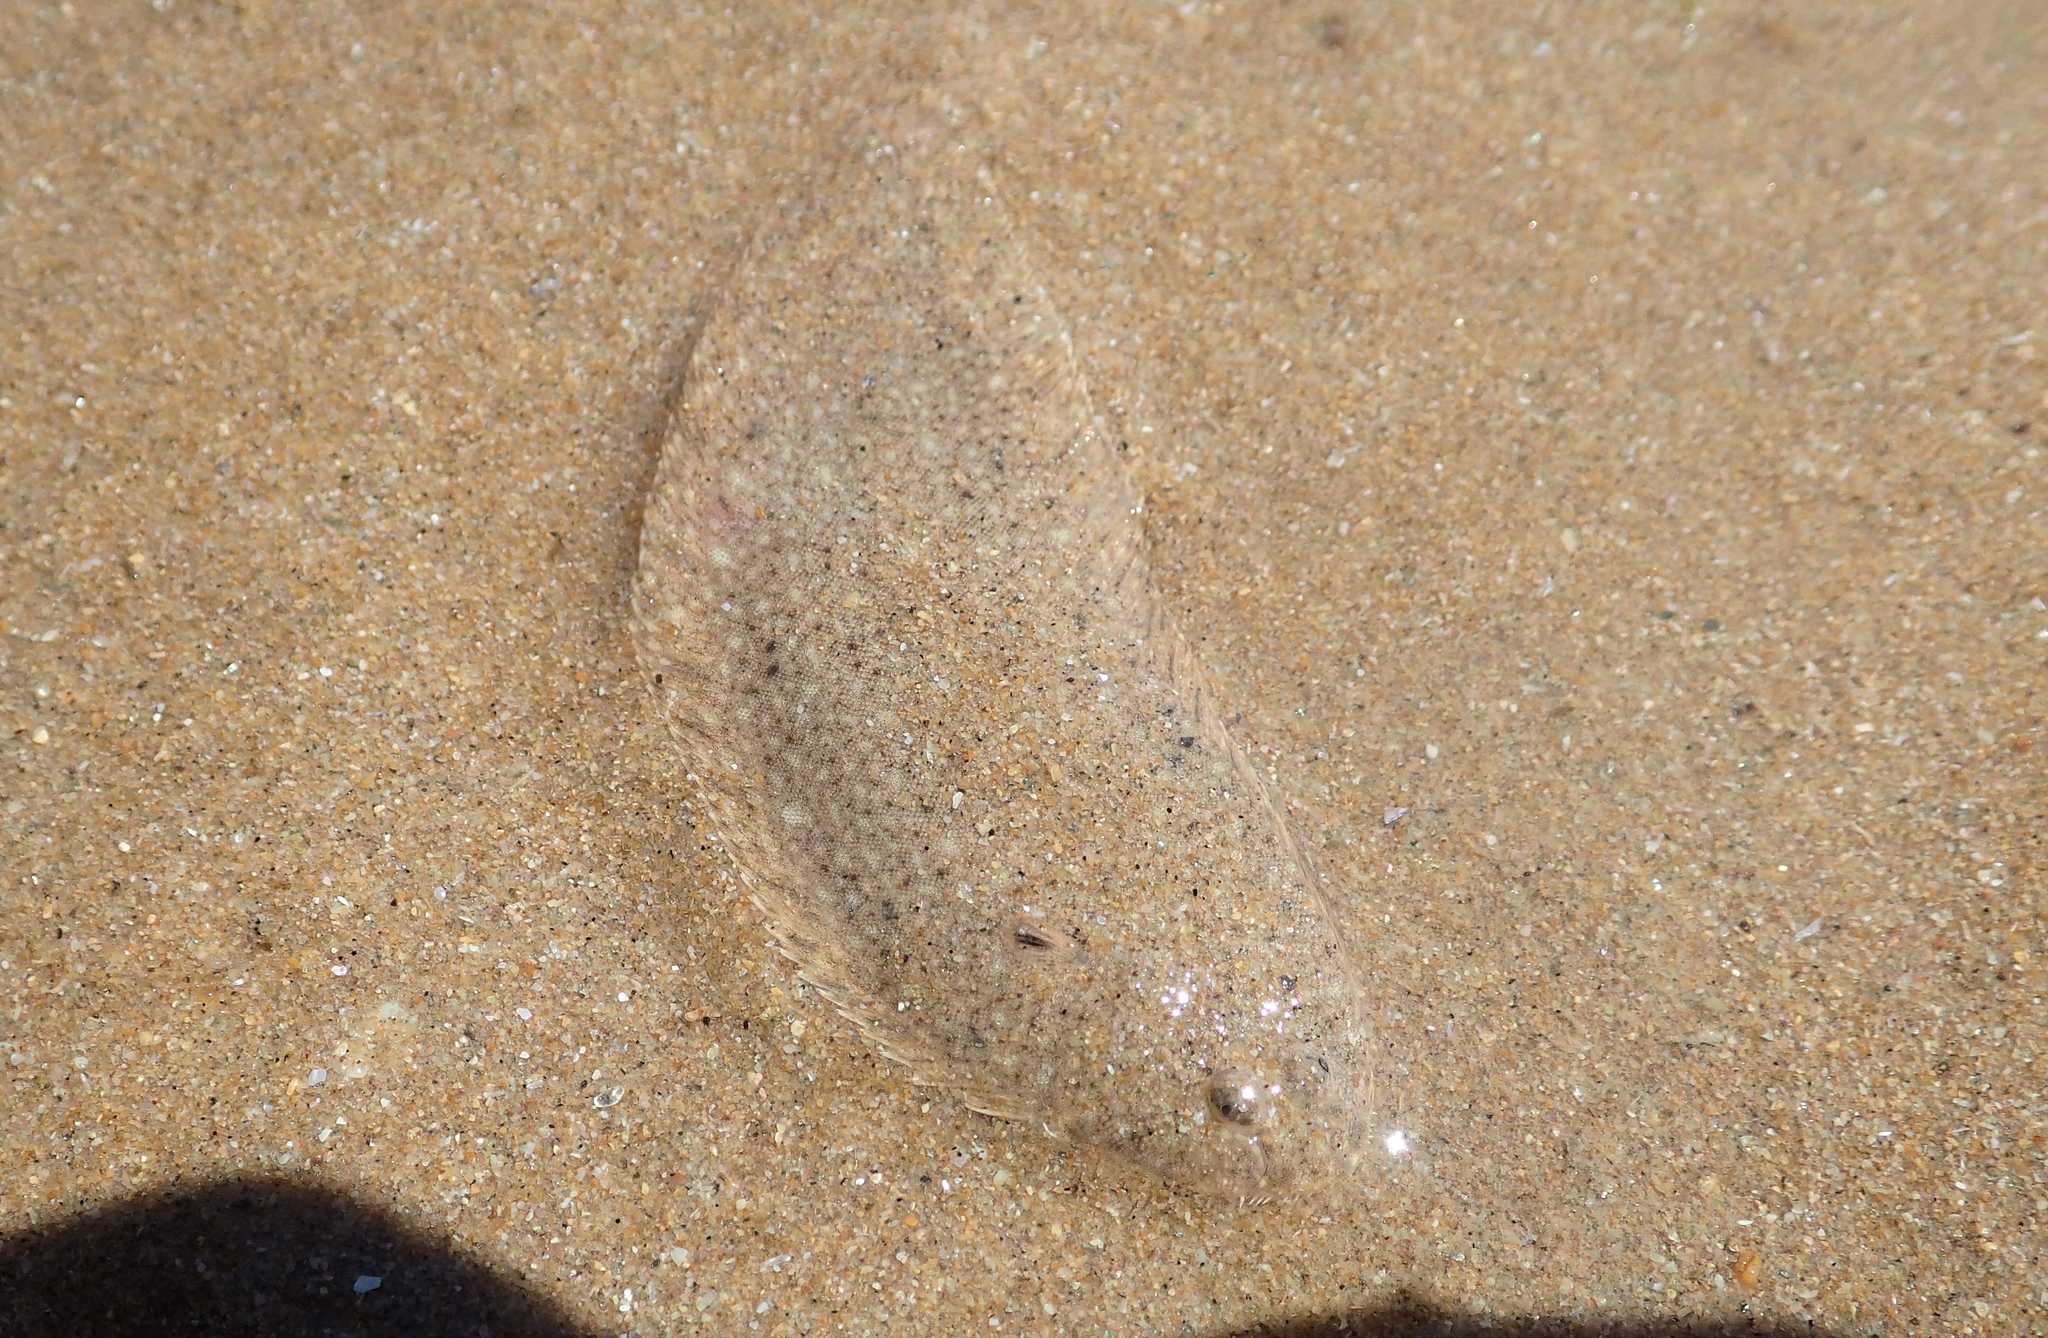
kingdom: Animalia
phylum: Chordata
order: Pleuronectiformes
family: Soleidae
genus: Pegusa
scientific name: Pegusa lascaris
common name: Sand sole
